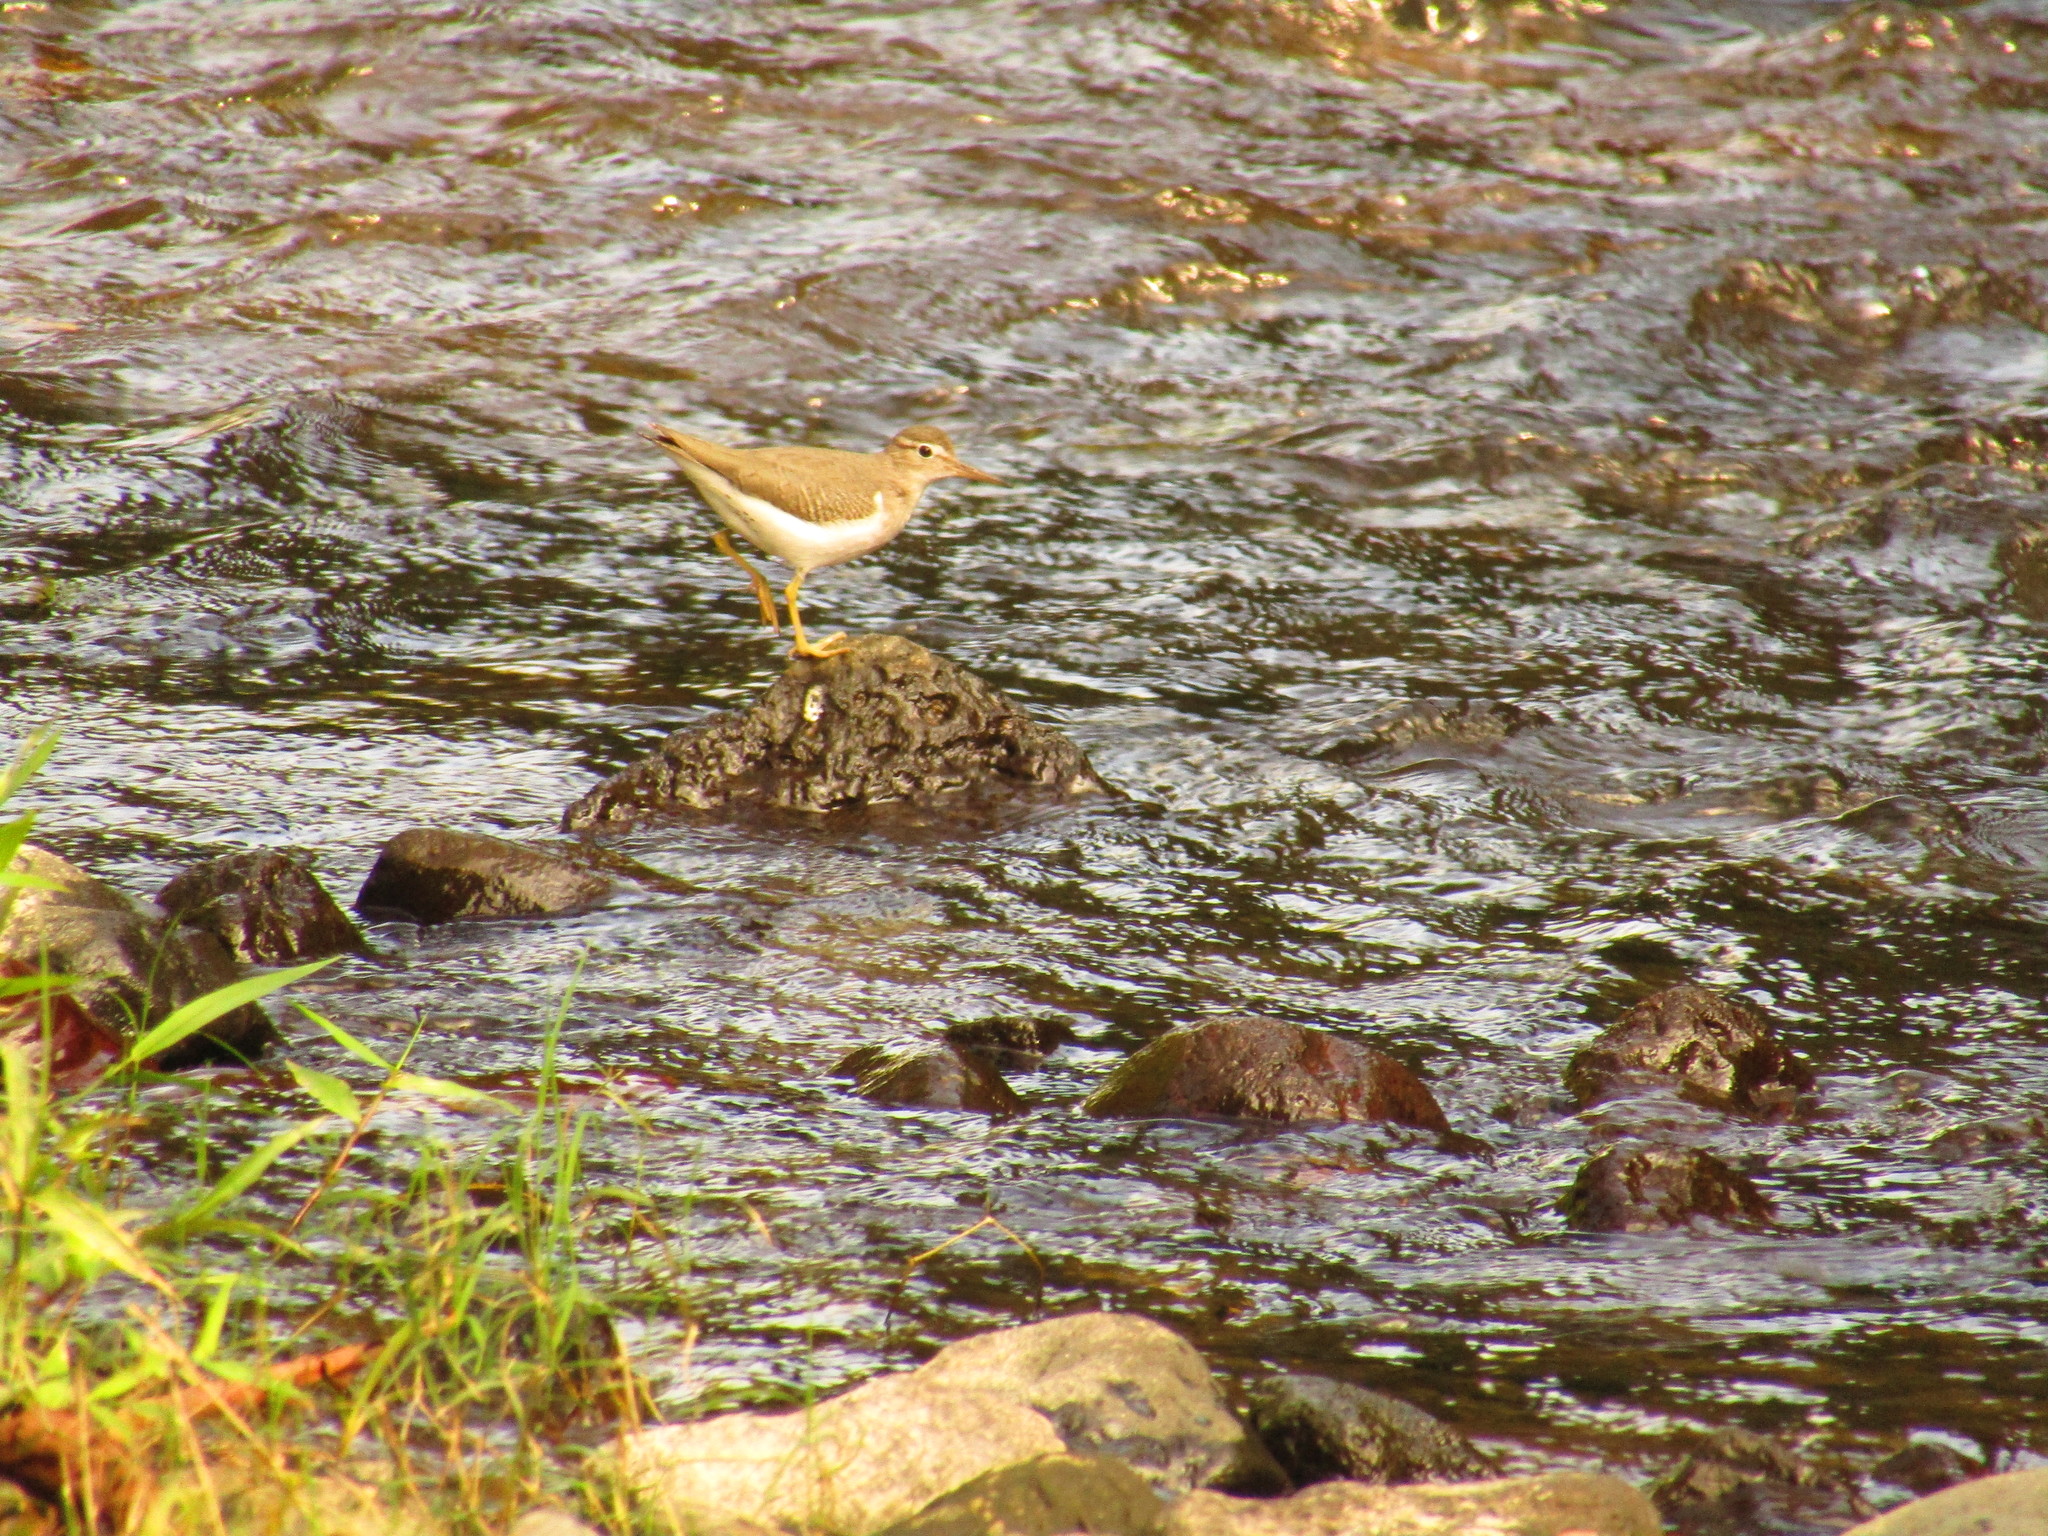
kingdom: Animalia
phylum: Chordata
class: Aves
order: Charadriiformes
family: Scolopacidae
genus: Actitis
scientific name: Actitis macularius
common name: Spotted sandpiper
